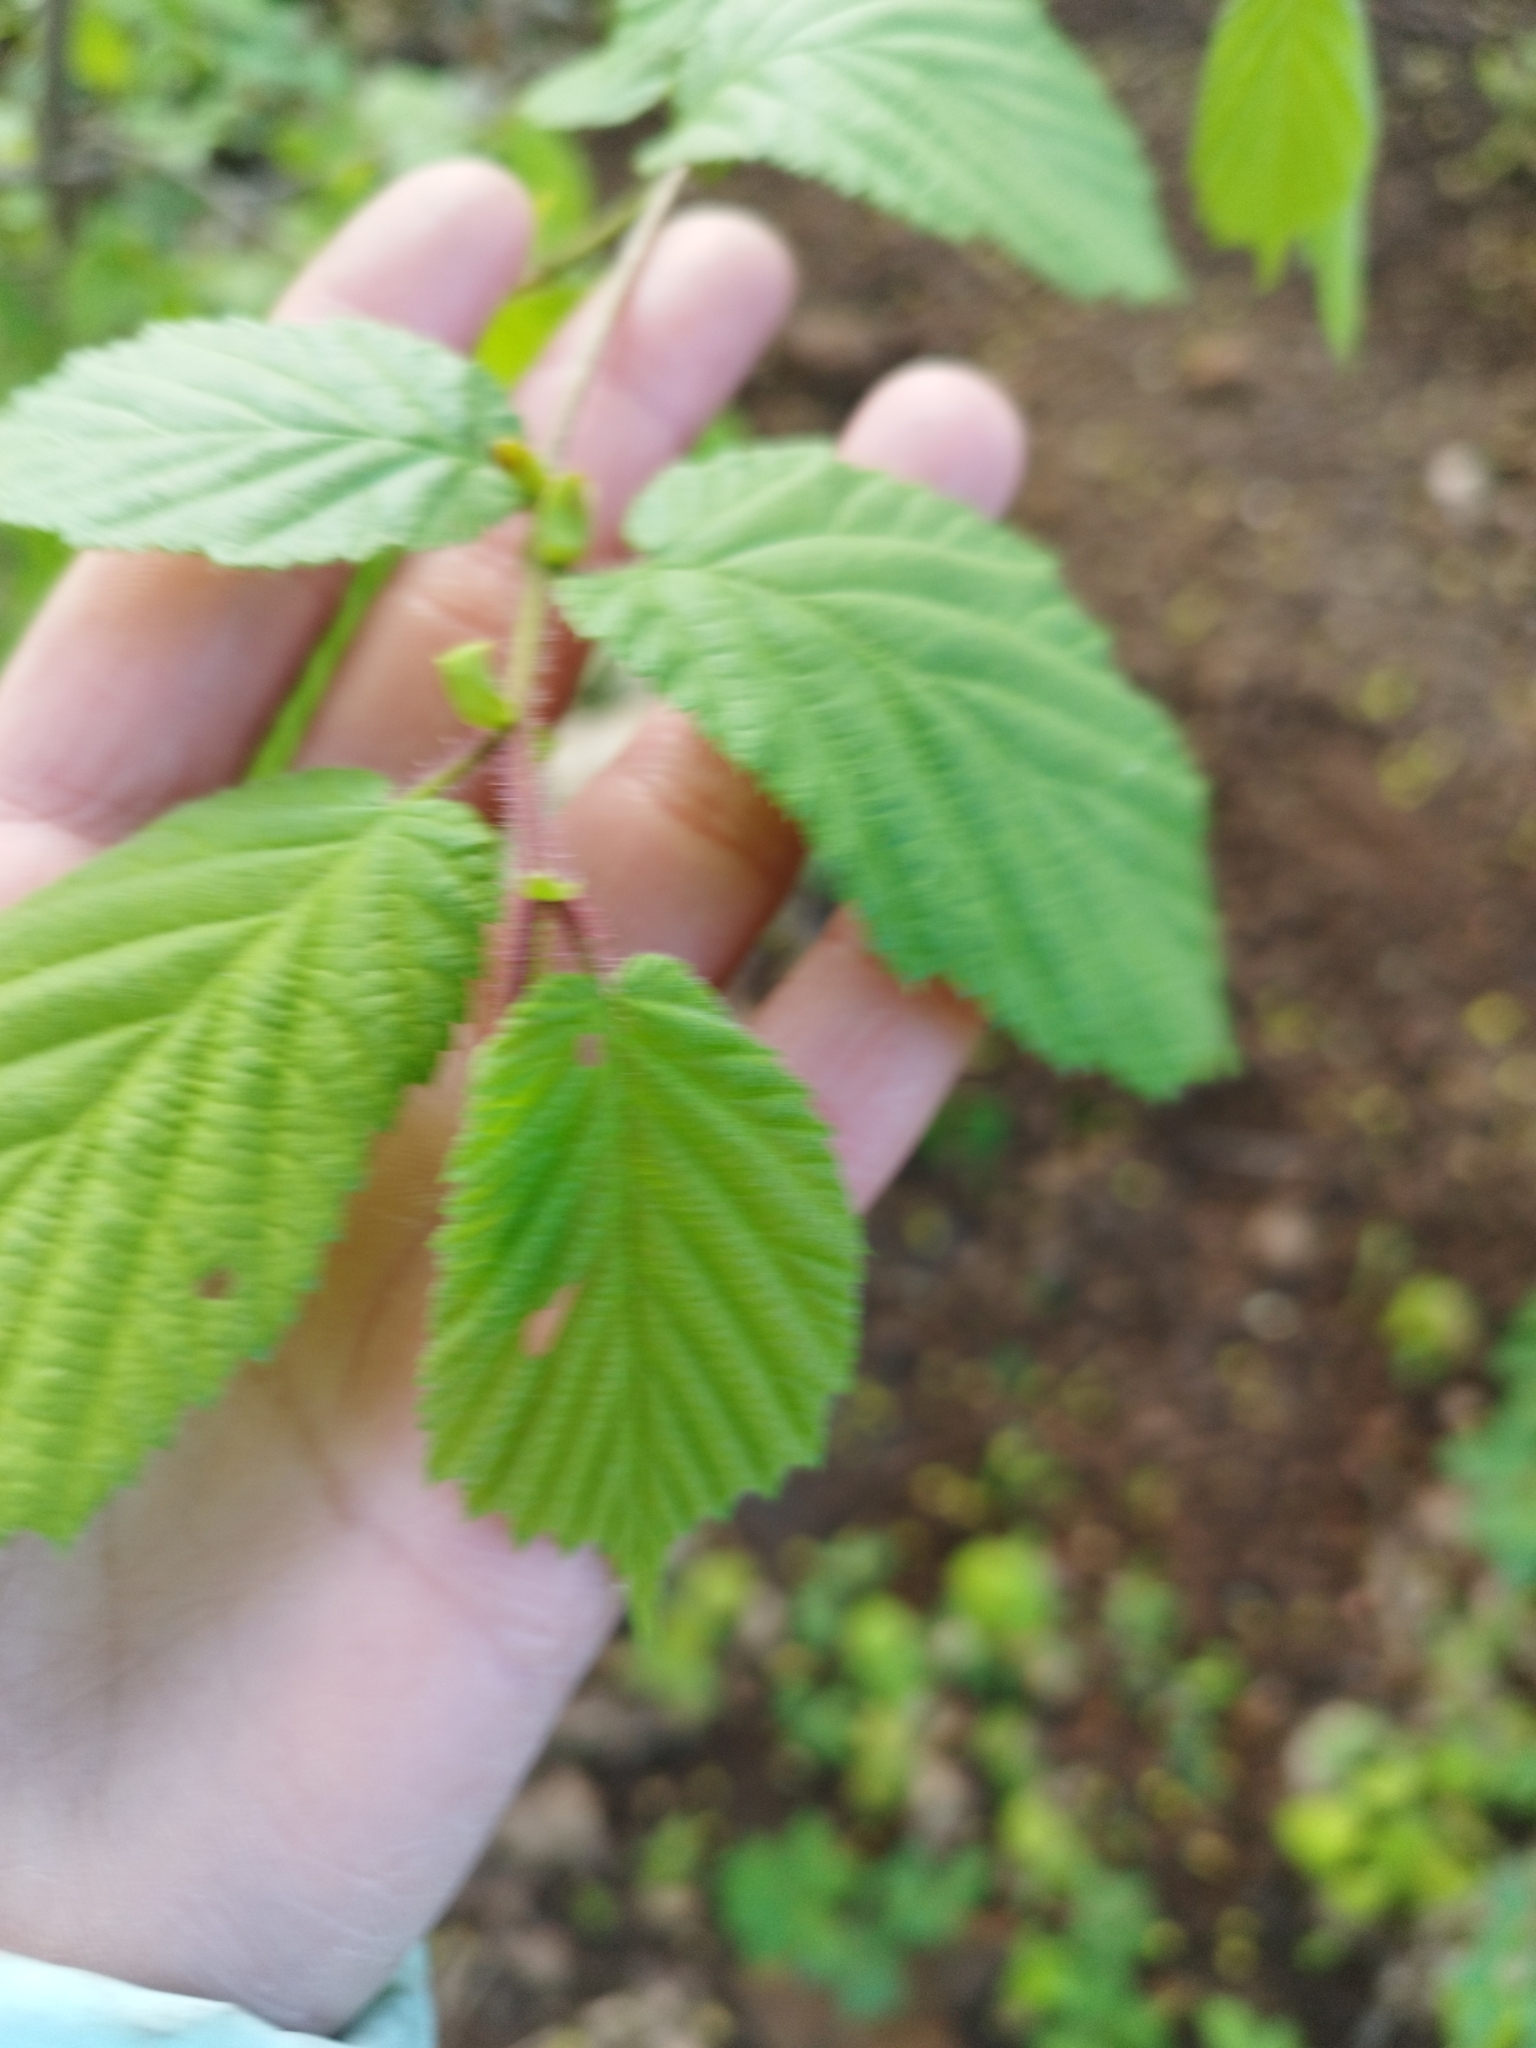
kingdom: Plantae
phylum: Tracheophyta
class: Magnoliopsida
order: Fagales
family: Betulaceae
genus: Corylus
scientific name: Corylus avellana
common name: European hazel
